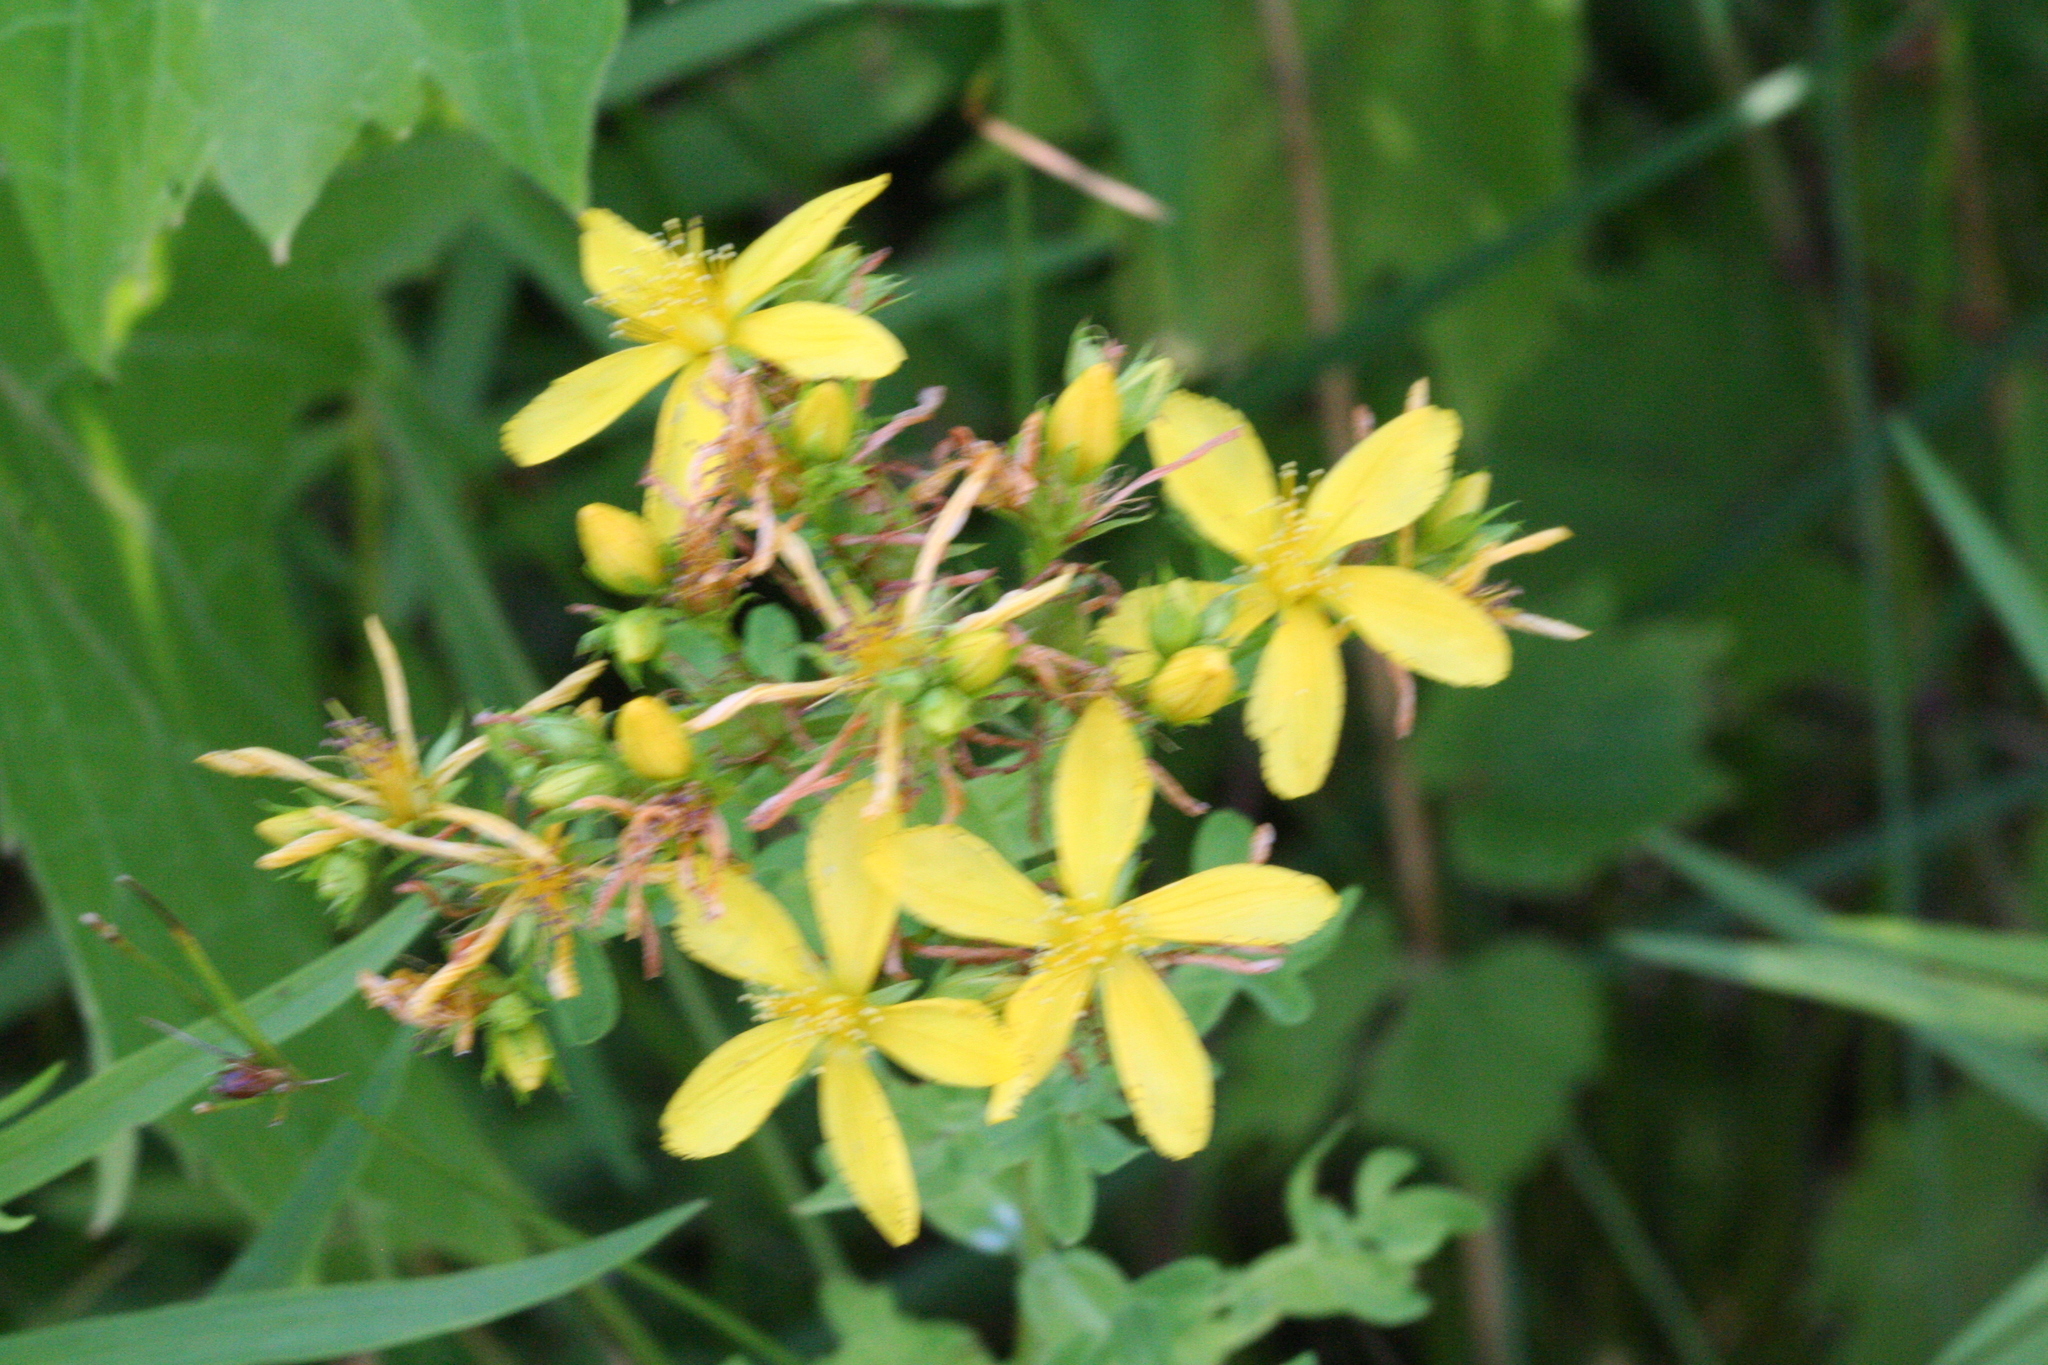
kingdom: Plantae
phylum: Tracheophyta
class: Magnoliopsida
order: Malpighiales
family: Hypericaceae
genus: Hypericum
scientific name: Hypericum perforatum
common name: Common st. johnswort
